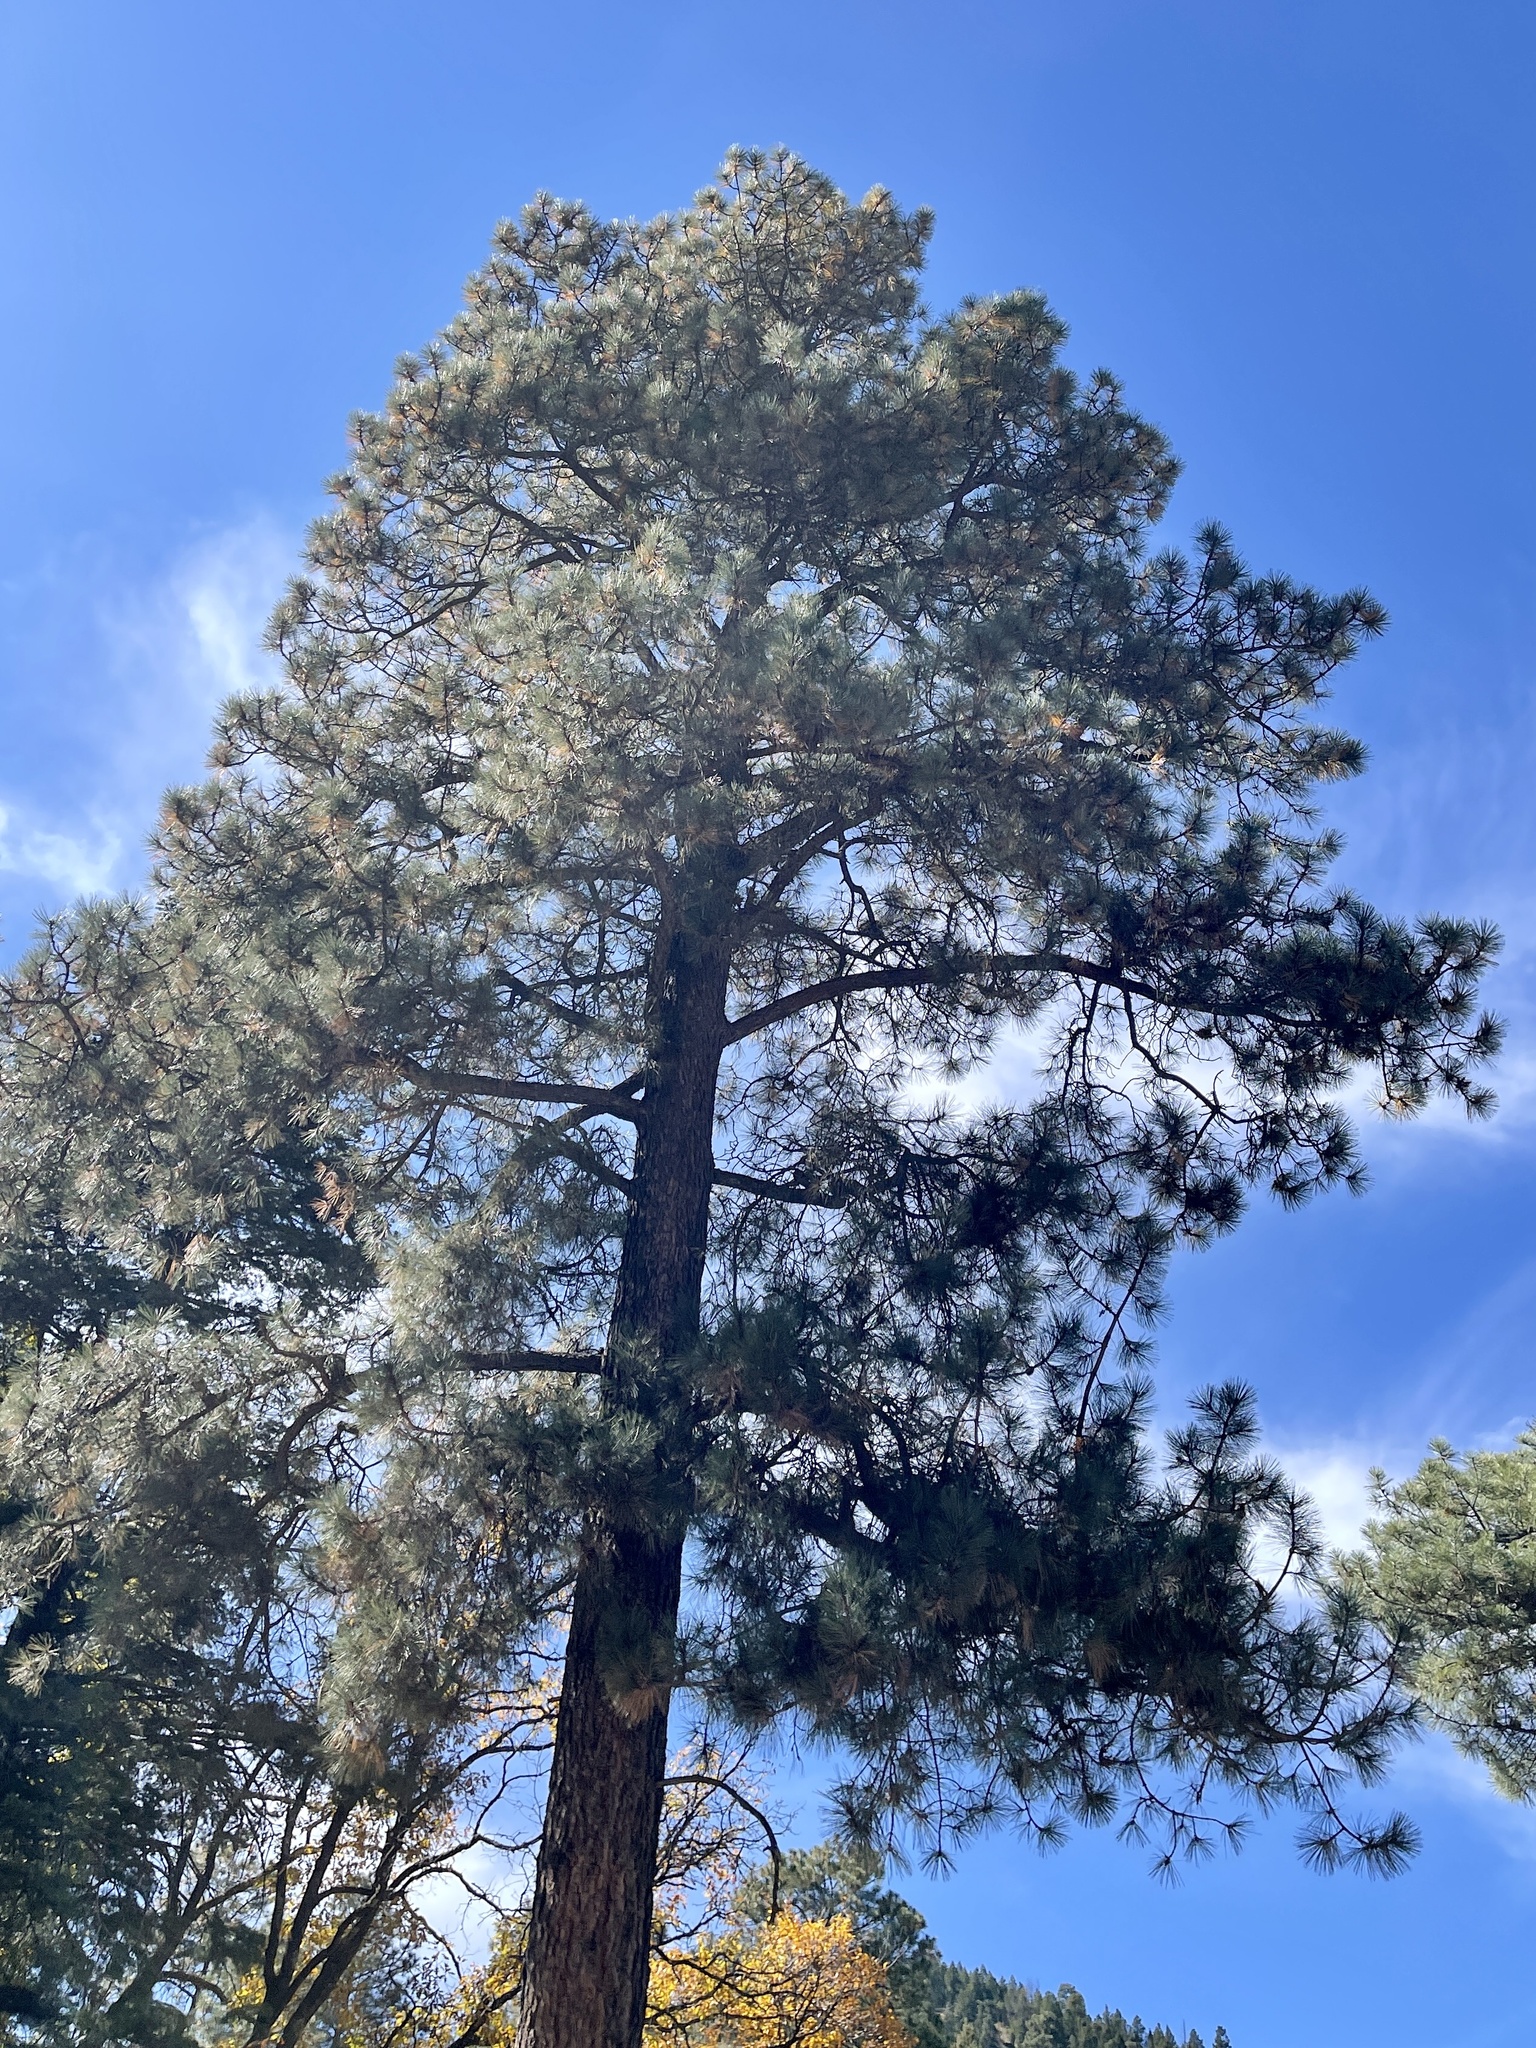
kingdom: Plantae
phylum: Tracheophyta
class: Pinopsida
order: Pinales
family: Pinaceae
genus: Pinus
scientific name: Pinus ponderosa
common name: Western yellow-pine
